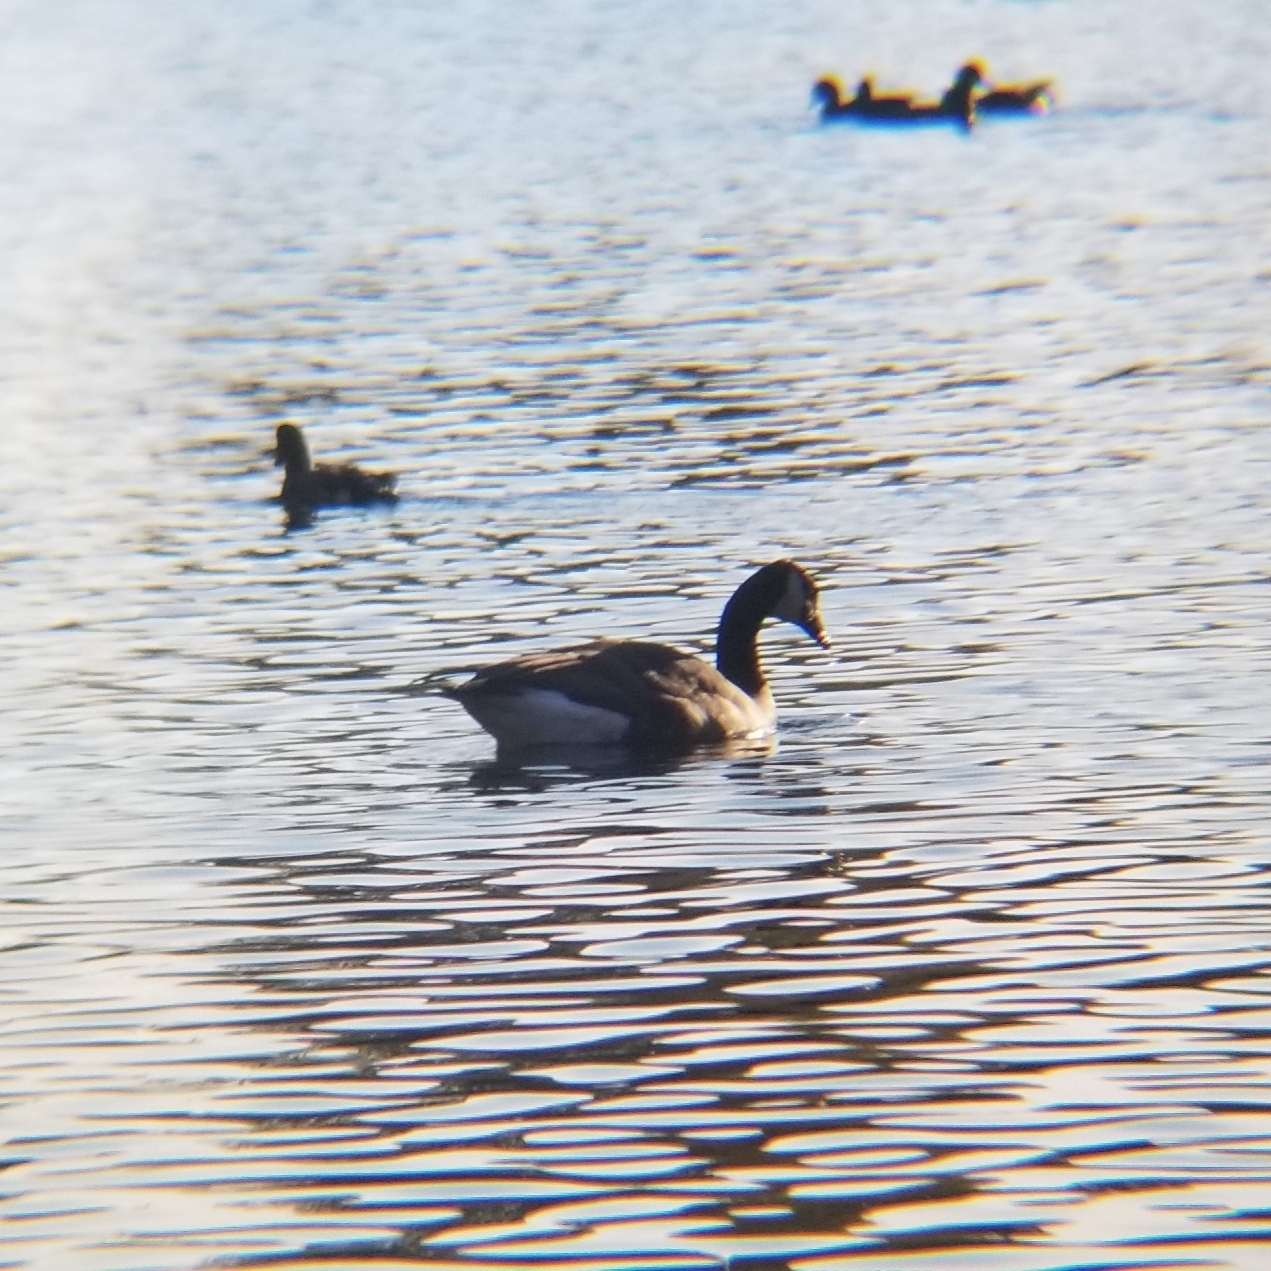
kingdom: Animalia
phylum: Chordata
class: Aves
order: Anseriformes
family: Anatidae
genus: Branta
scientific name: Branta canadensis
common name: Canada goose
